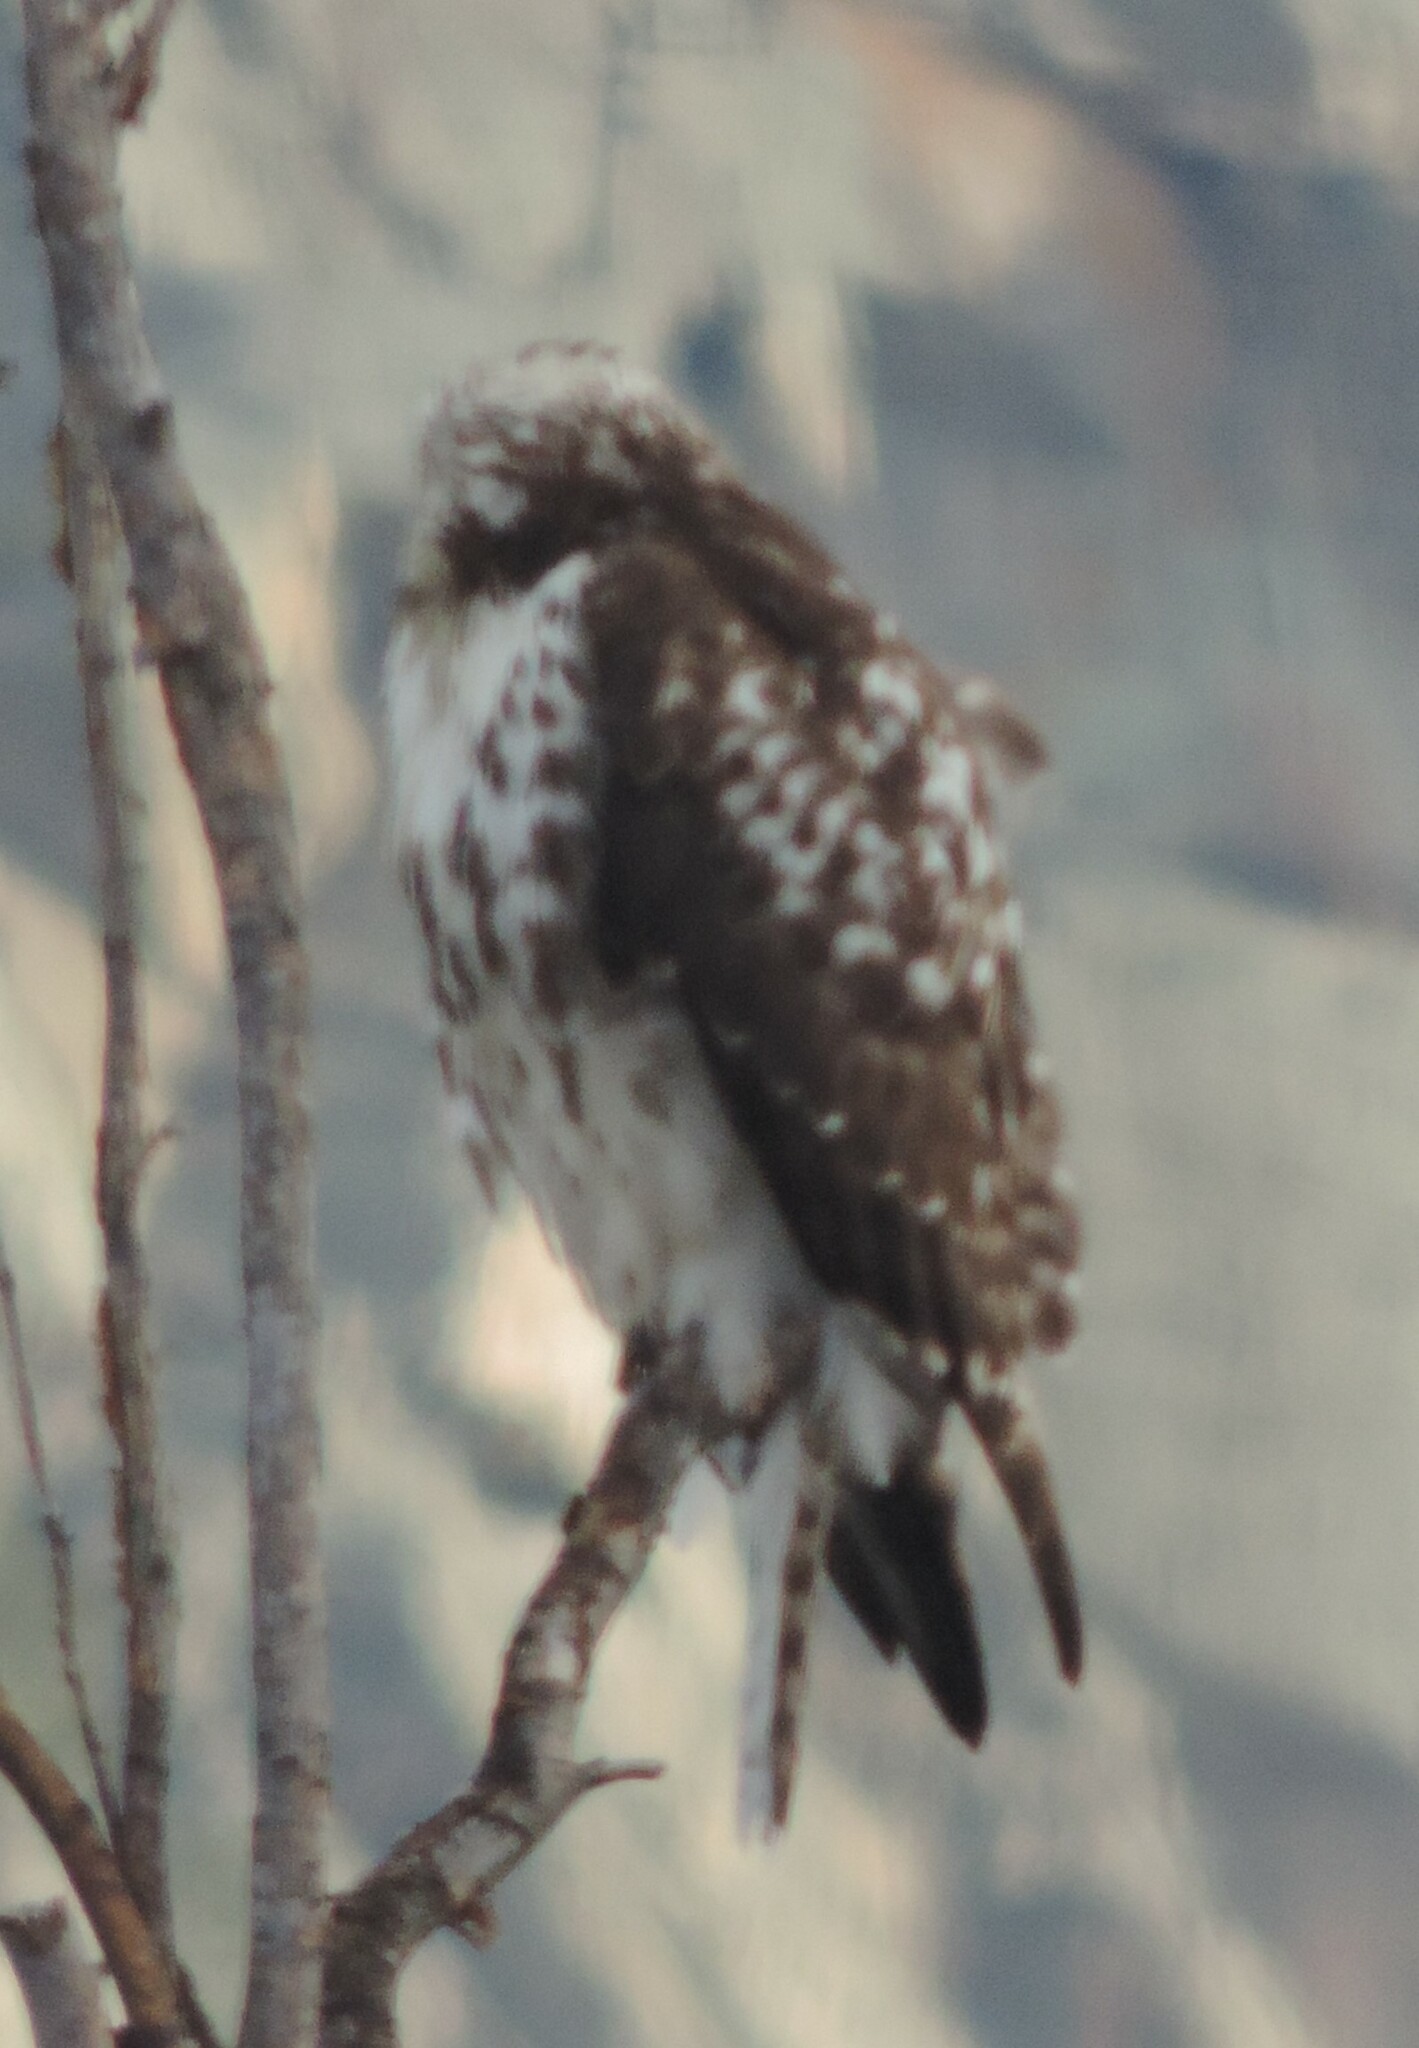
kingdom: Animalia
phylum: Chordata
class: Aves
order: Accipitriformes
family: Accipitridae
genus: Buteo
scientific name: Buteo jamaicensis
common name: Red-tailed hawk
